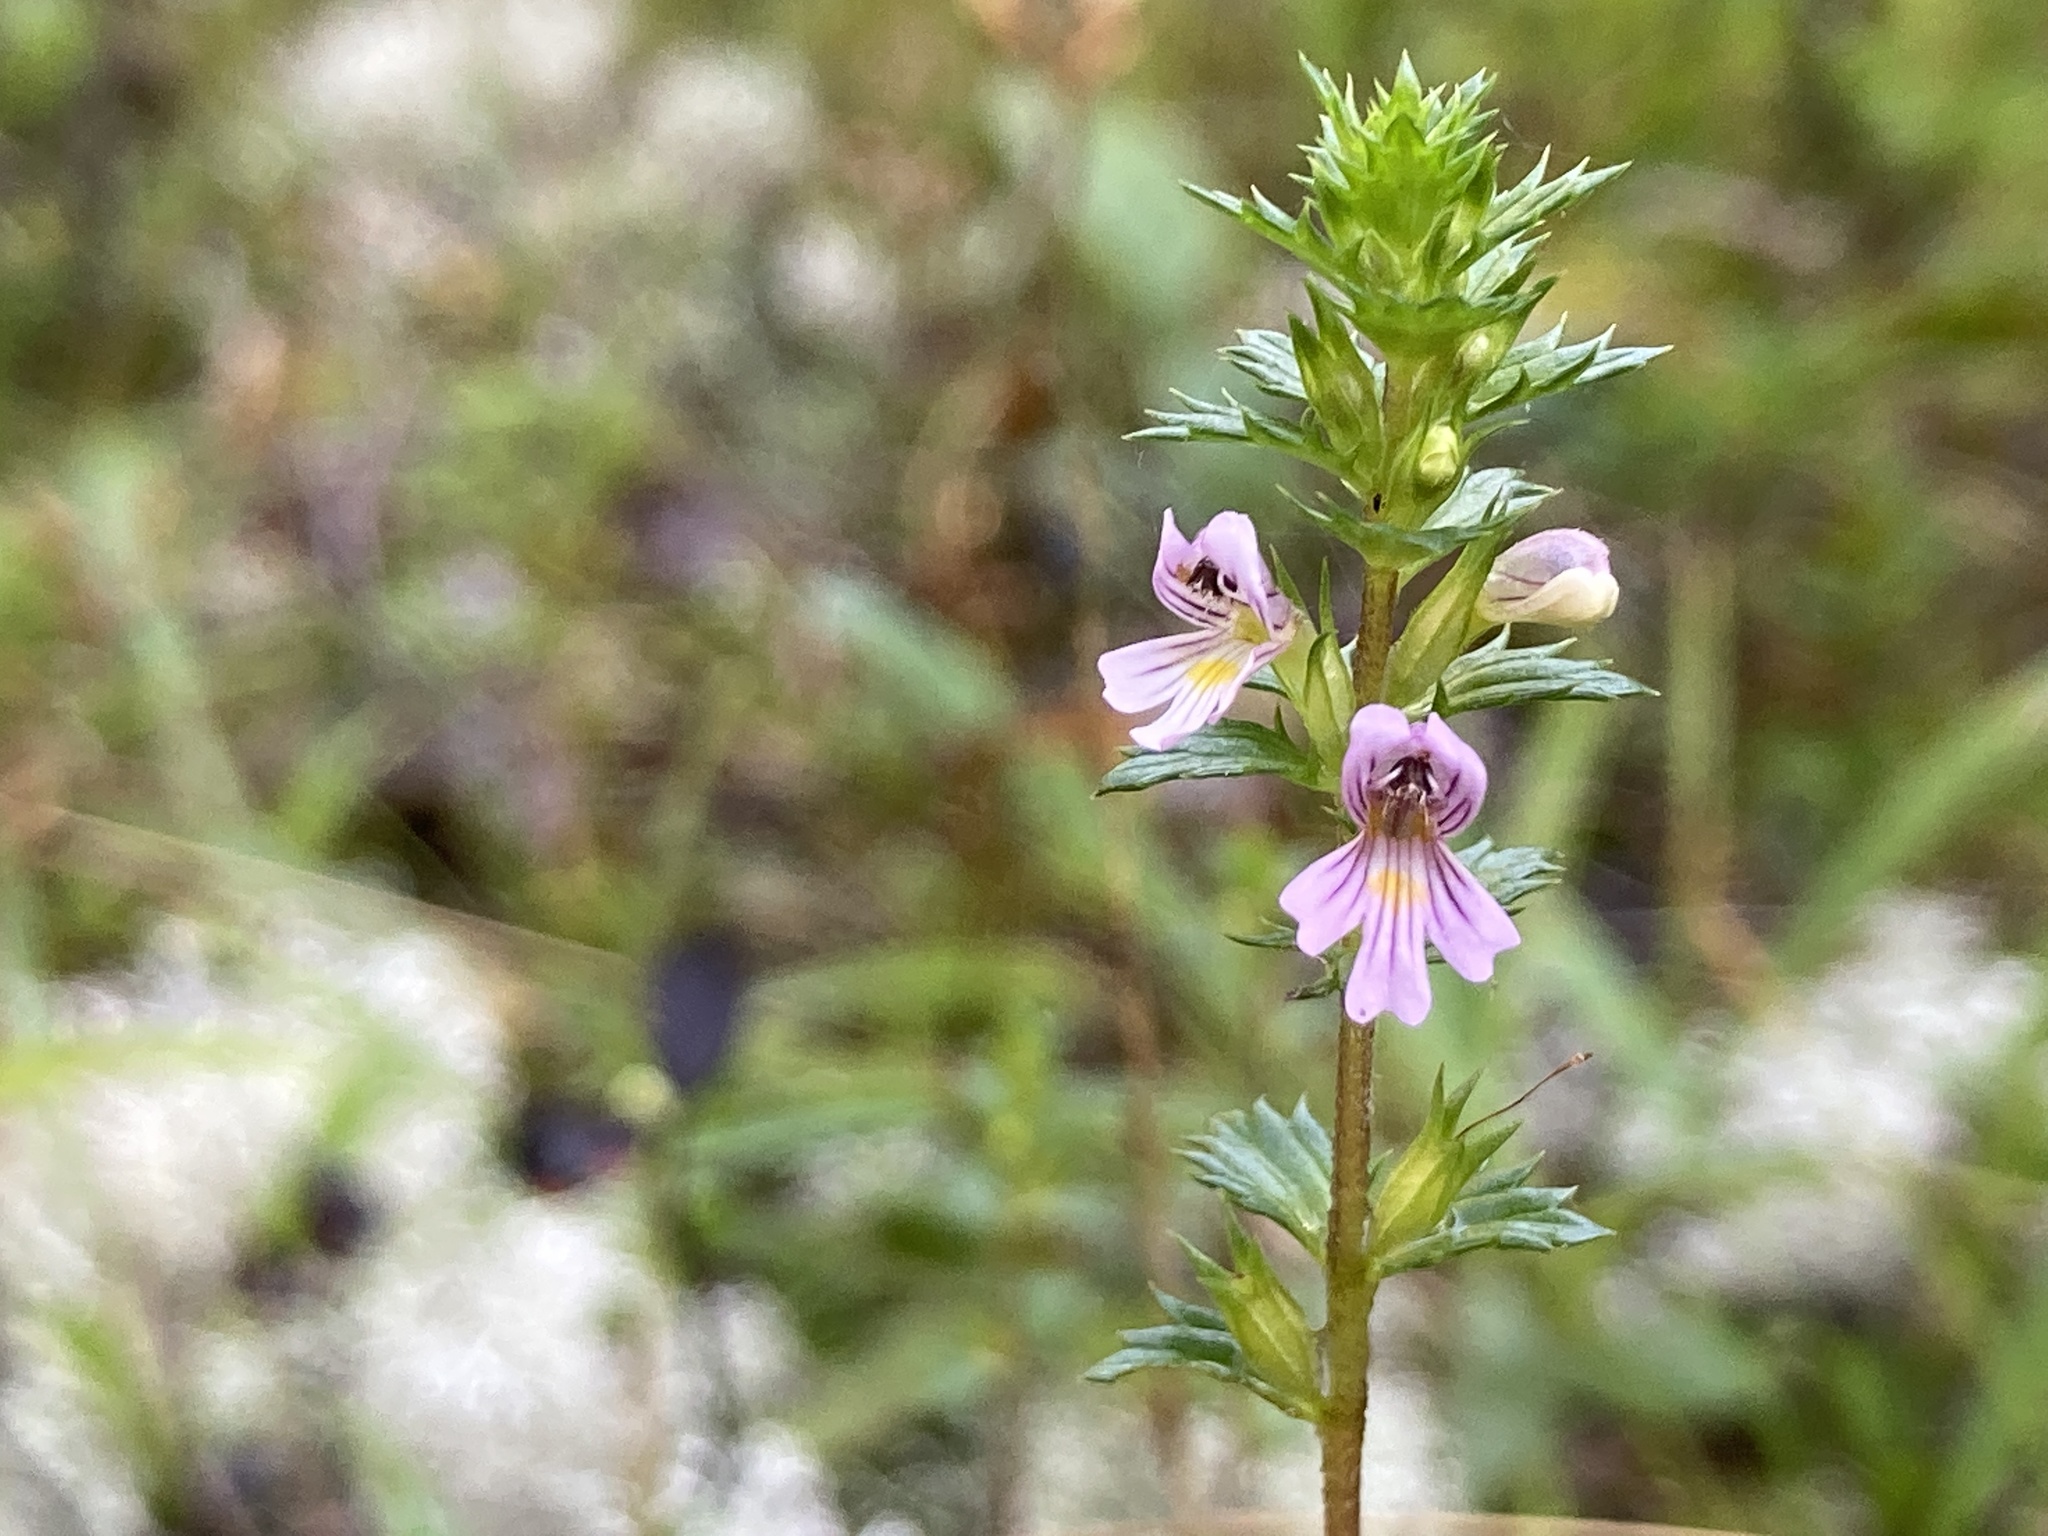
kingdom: Plantae
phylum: Tracheophyta
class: Magnoliopsida
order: Lamiales
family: Orobanchaceae
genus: Euphrasia
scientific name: Euphrasia stricta
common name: Drug eyebright
